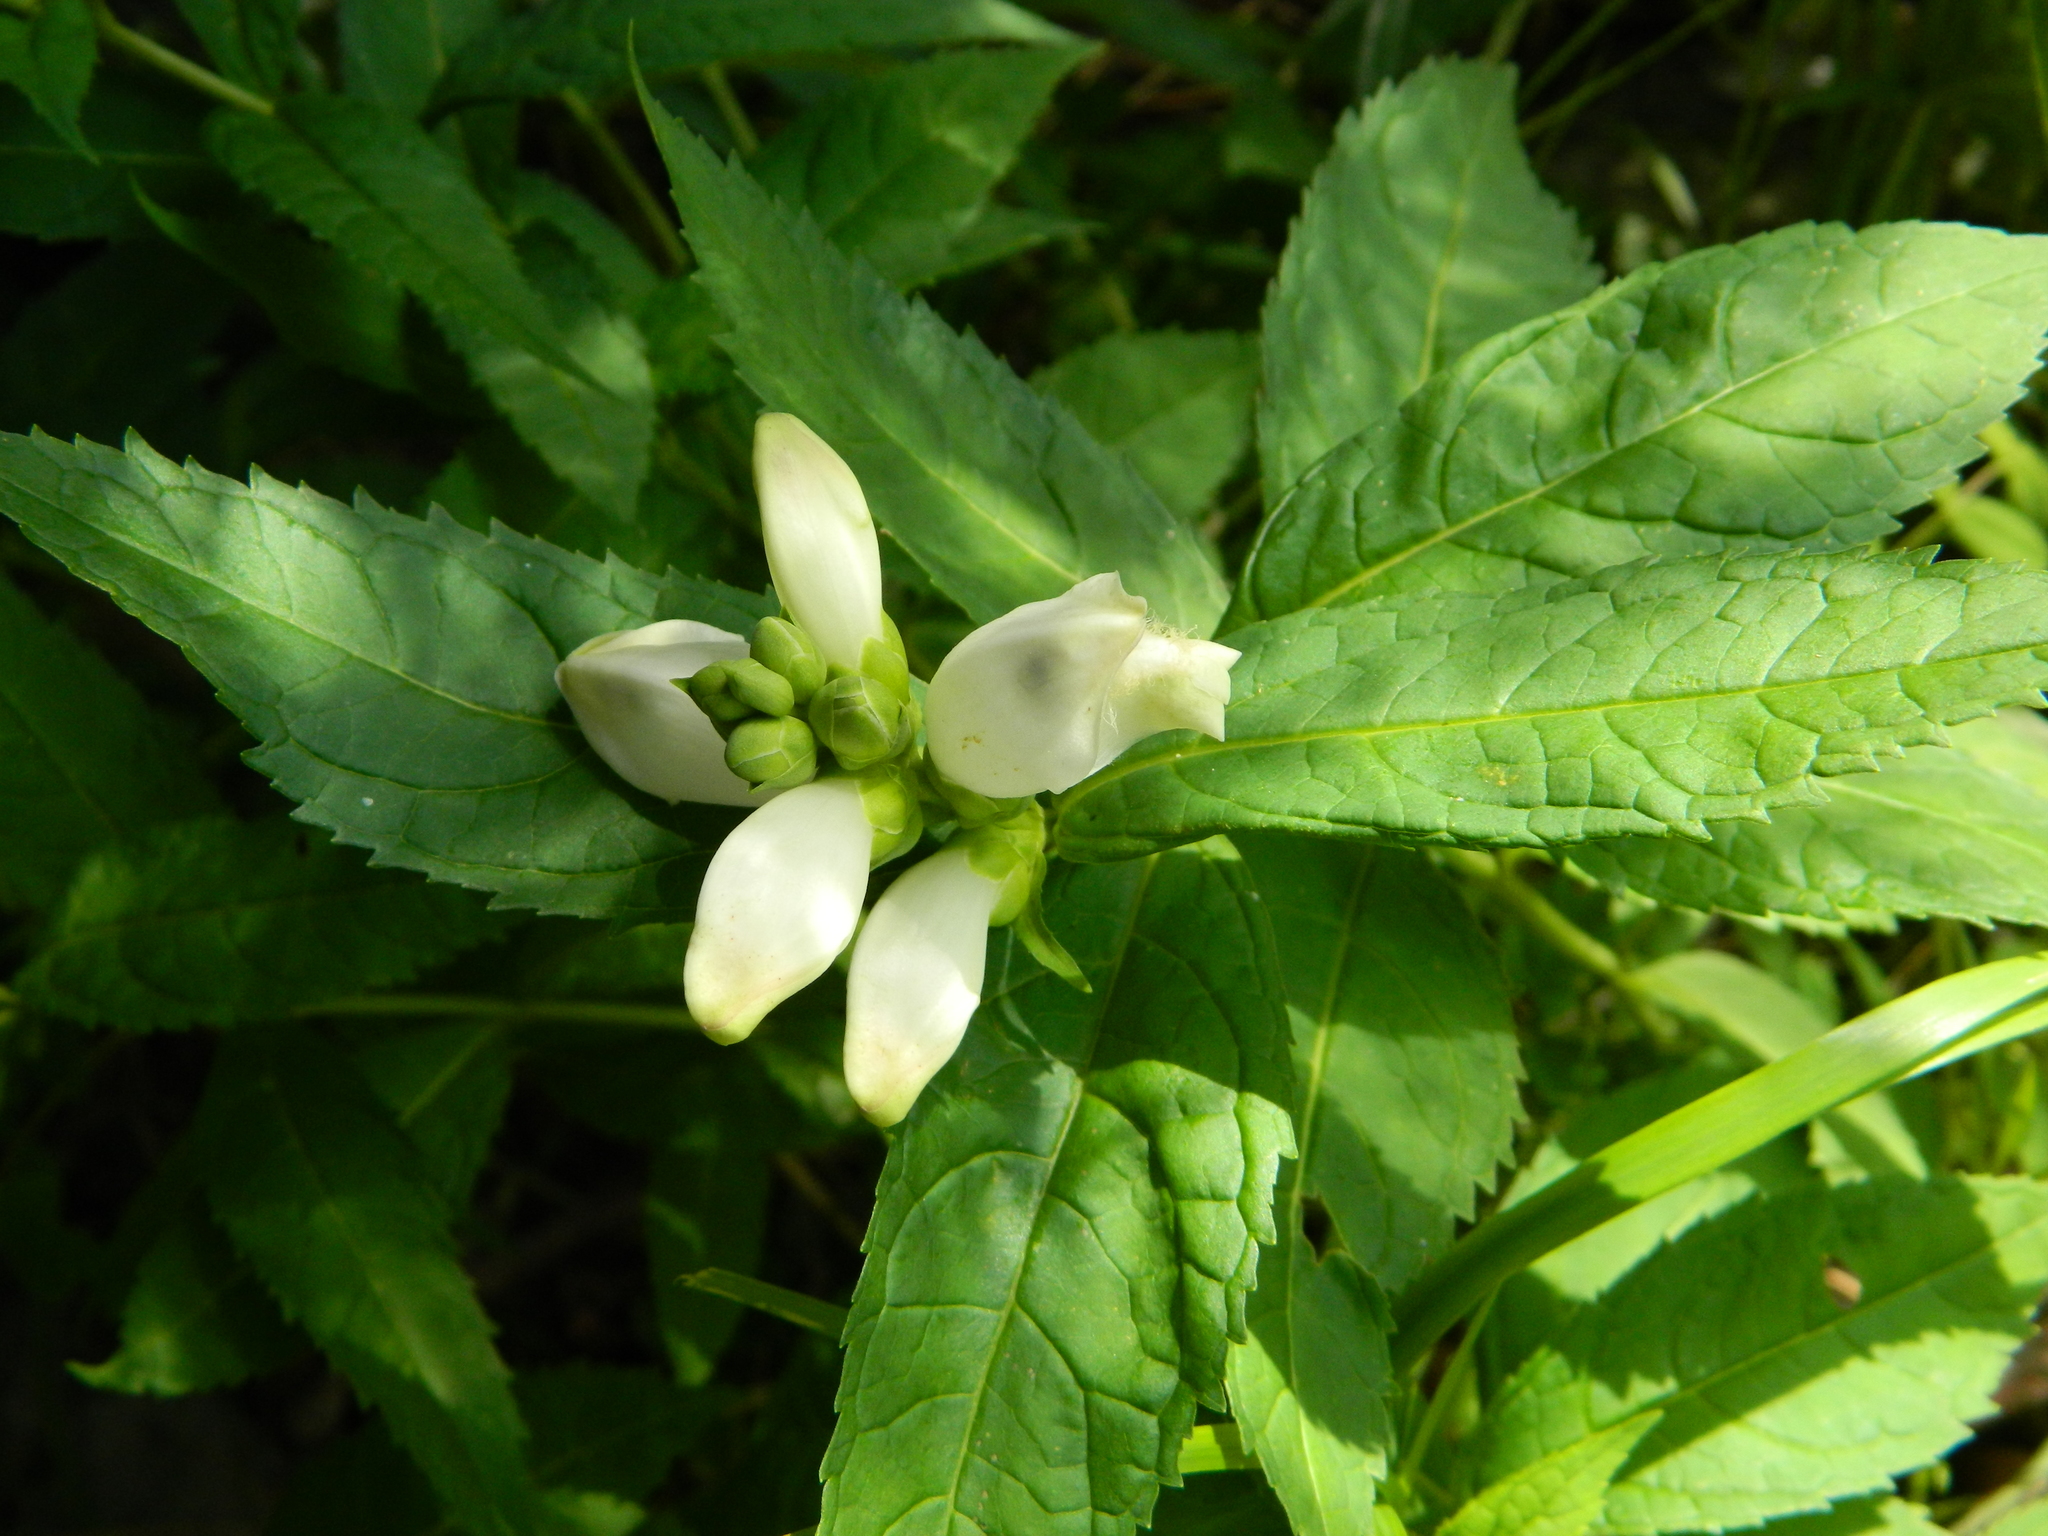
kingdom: Plantae
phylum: Tracheophyta
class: Magnoliopsida
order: Lamiales
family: Plantaginaceae
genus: Chelone
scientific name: Chelone glabra
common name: Snakehead
